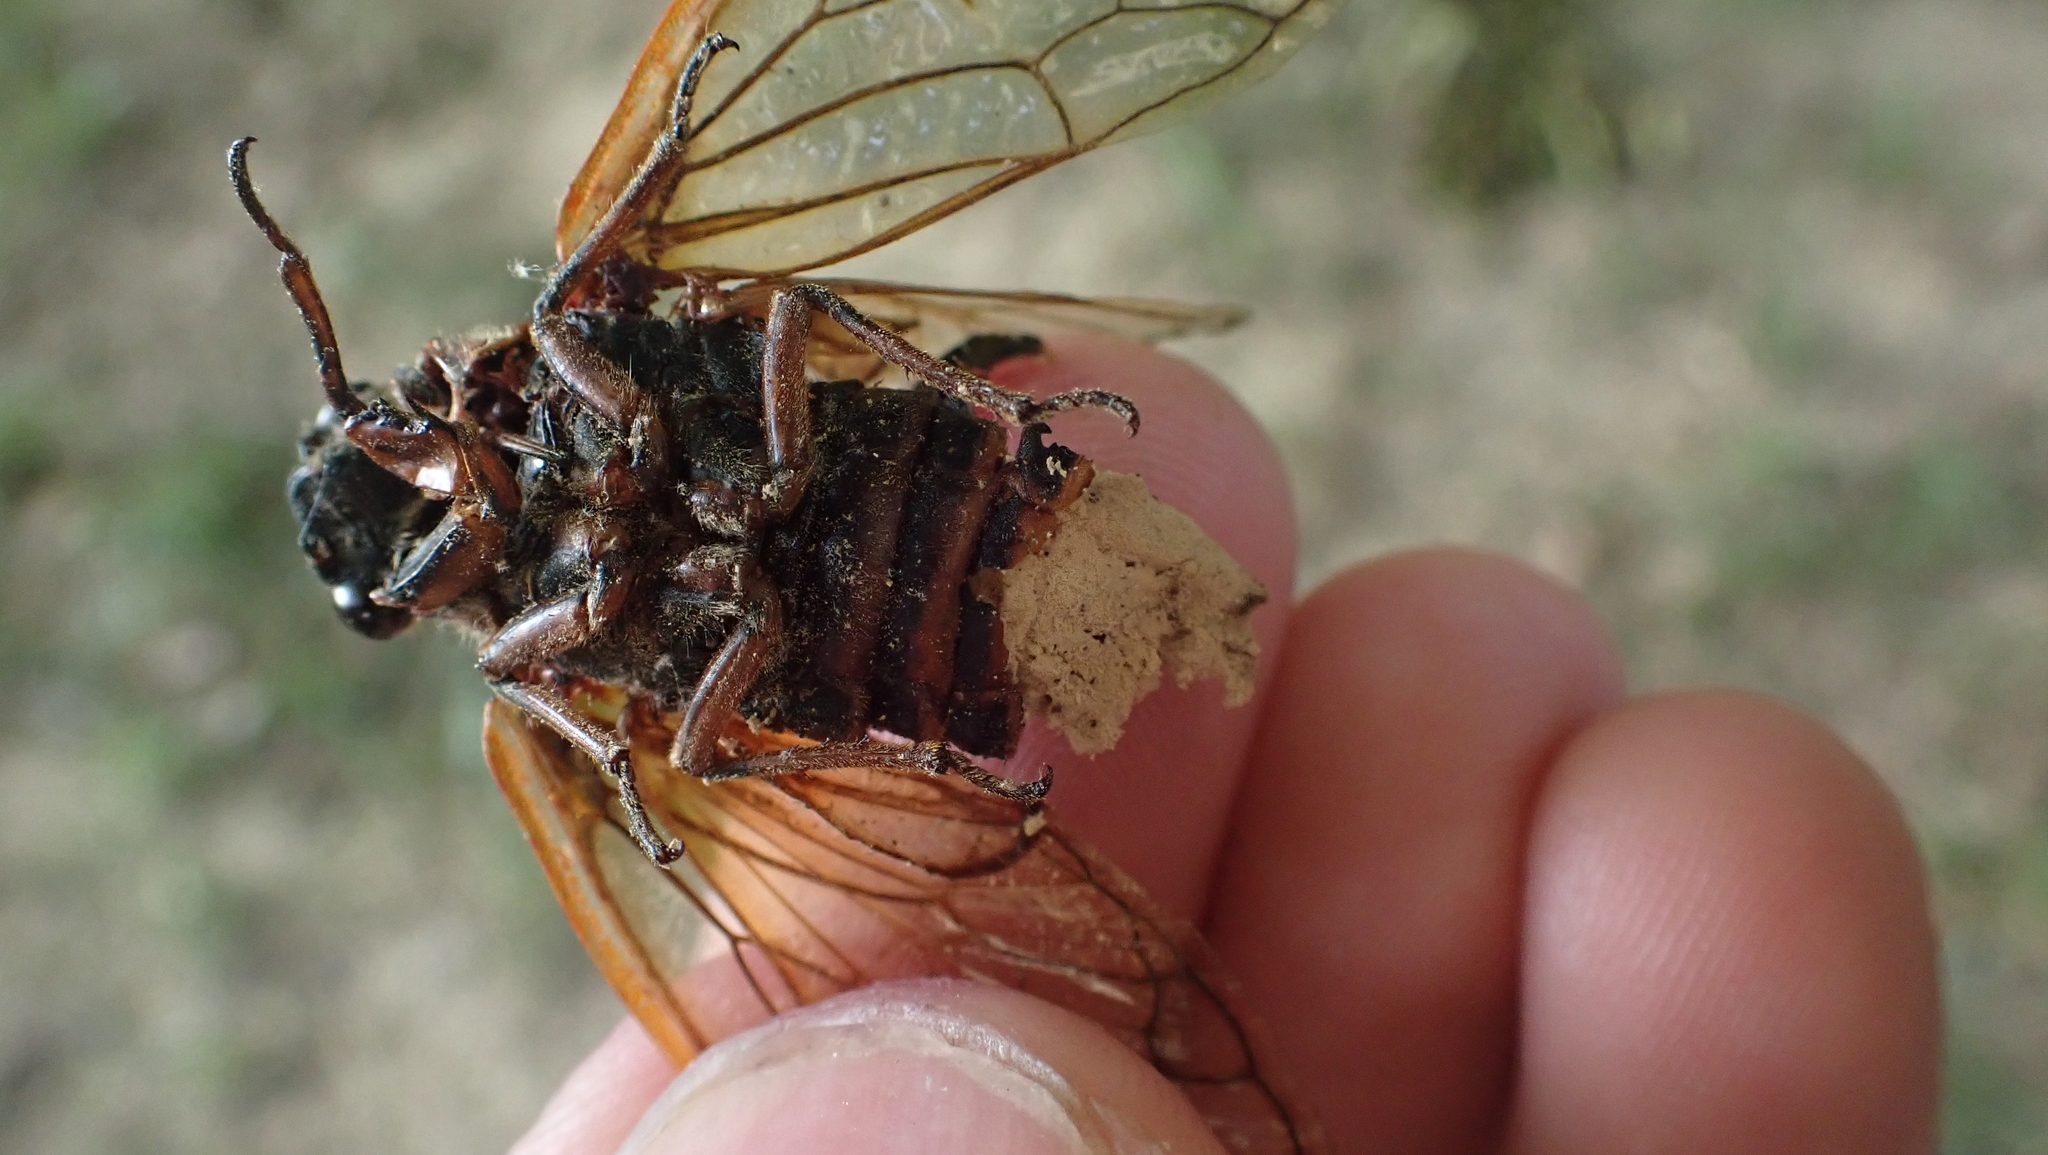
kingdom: Fungi
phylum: Entomophthoromycota
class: Entomophthoromycetes
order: Entomophthorales
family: Entomophthoraceae
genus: Massospora
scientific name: Massospora cicadina
